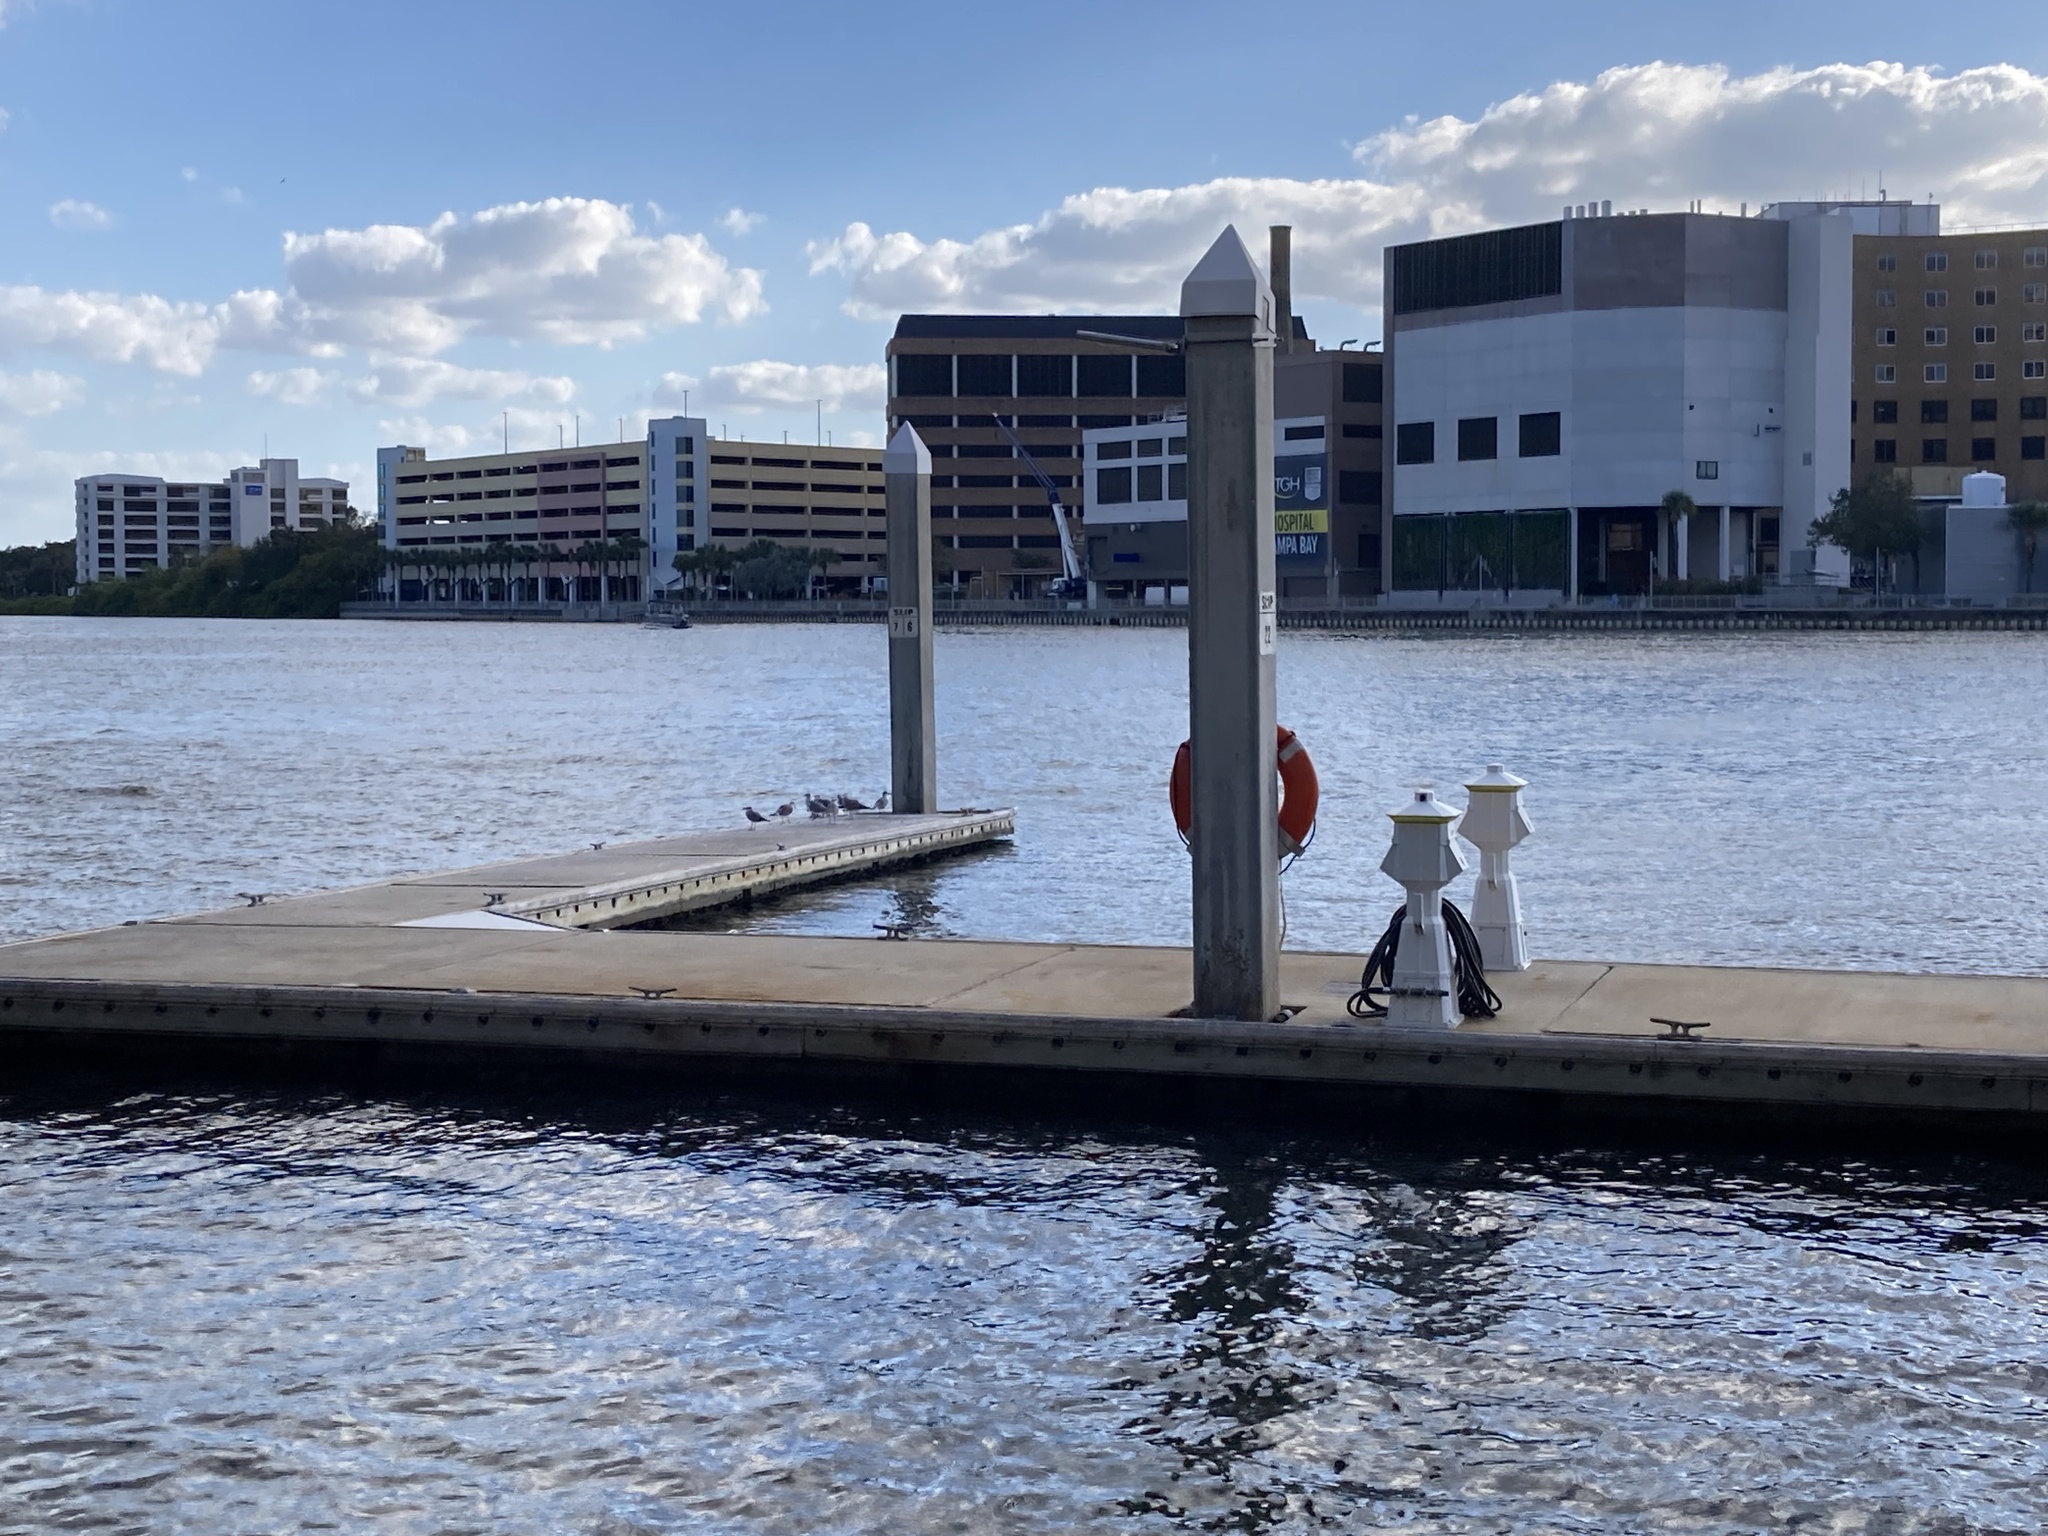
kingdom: Animalia
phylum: Chordata
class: Aves
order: Charadriiformes
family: Laridae
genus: Leucophaeus
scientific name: Leucophaeus atricilla
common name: Laughing gull
